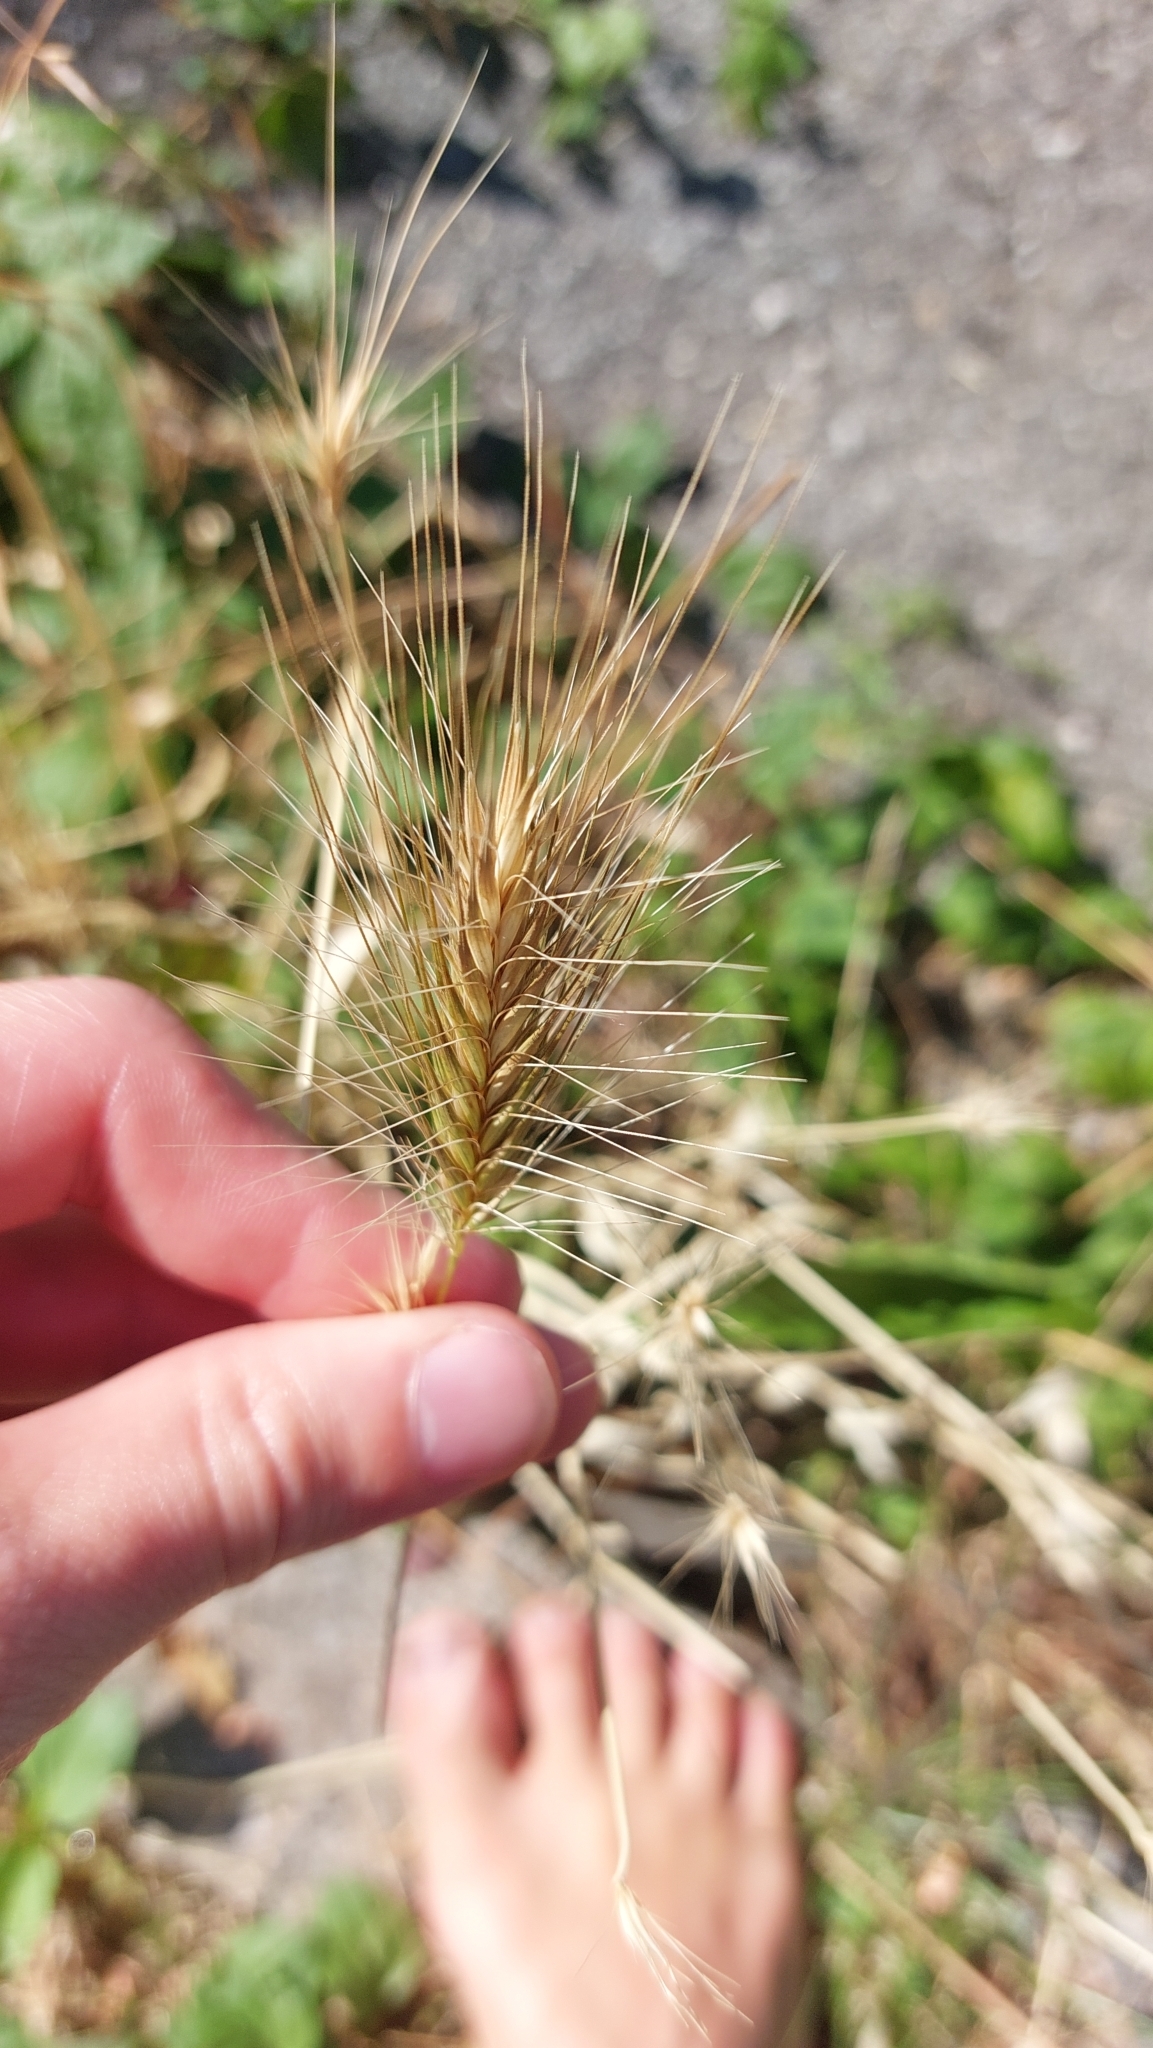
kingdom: Plantae
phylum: Tracheophyta
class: Liliopsida
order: Poales
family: Poaceae
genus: Hordeum
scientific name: Hordeum murinum
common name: Wall barley
